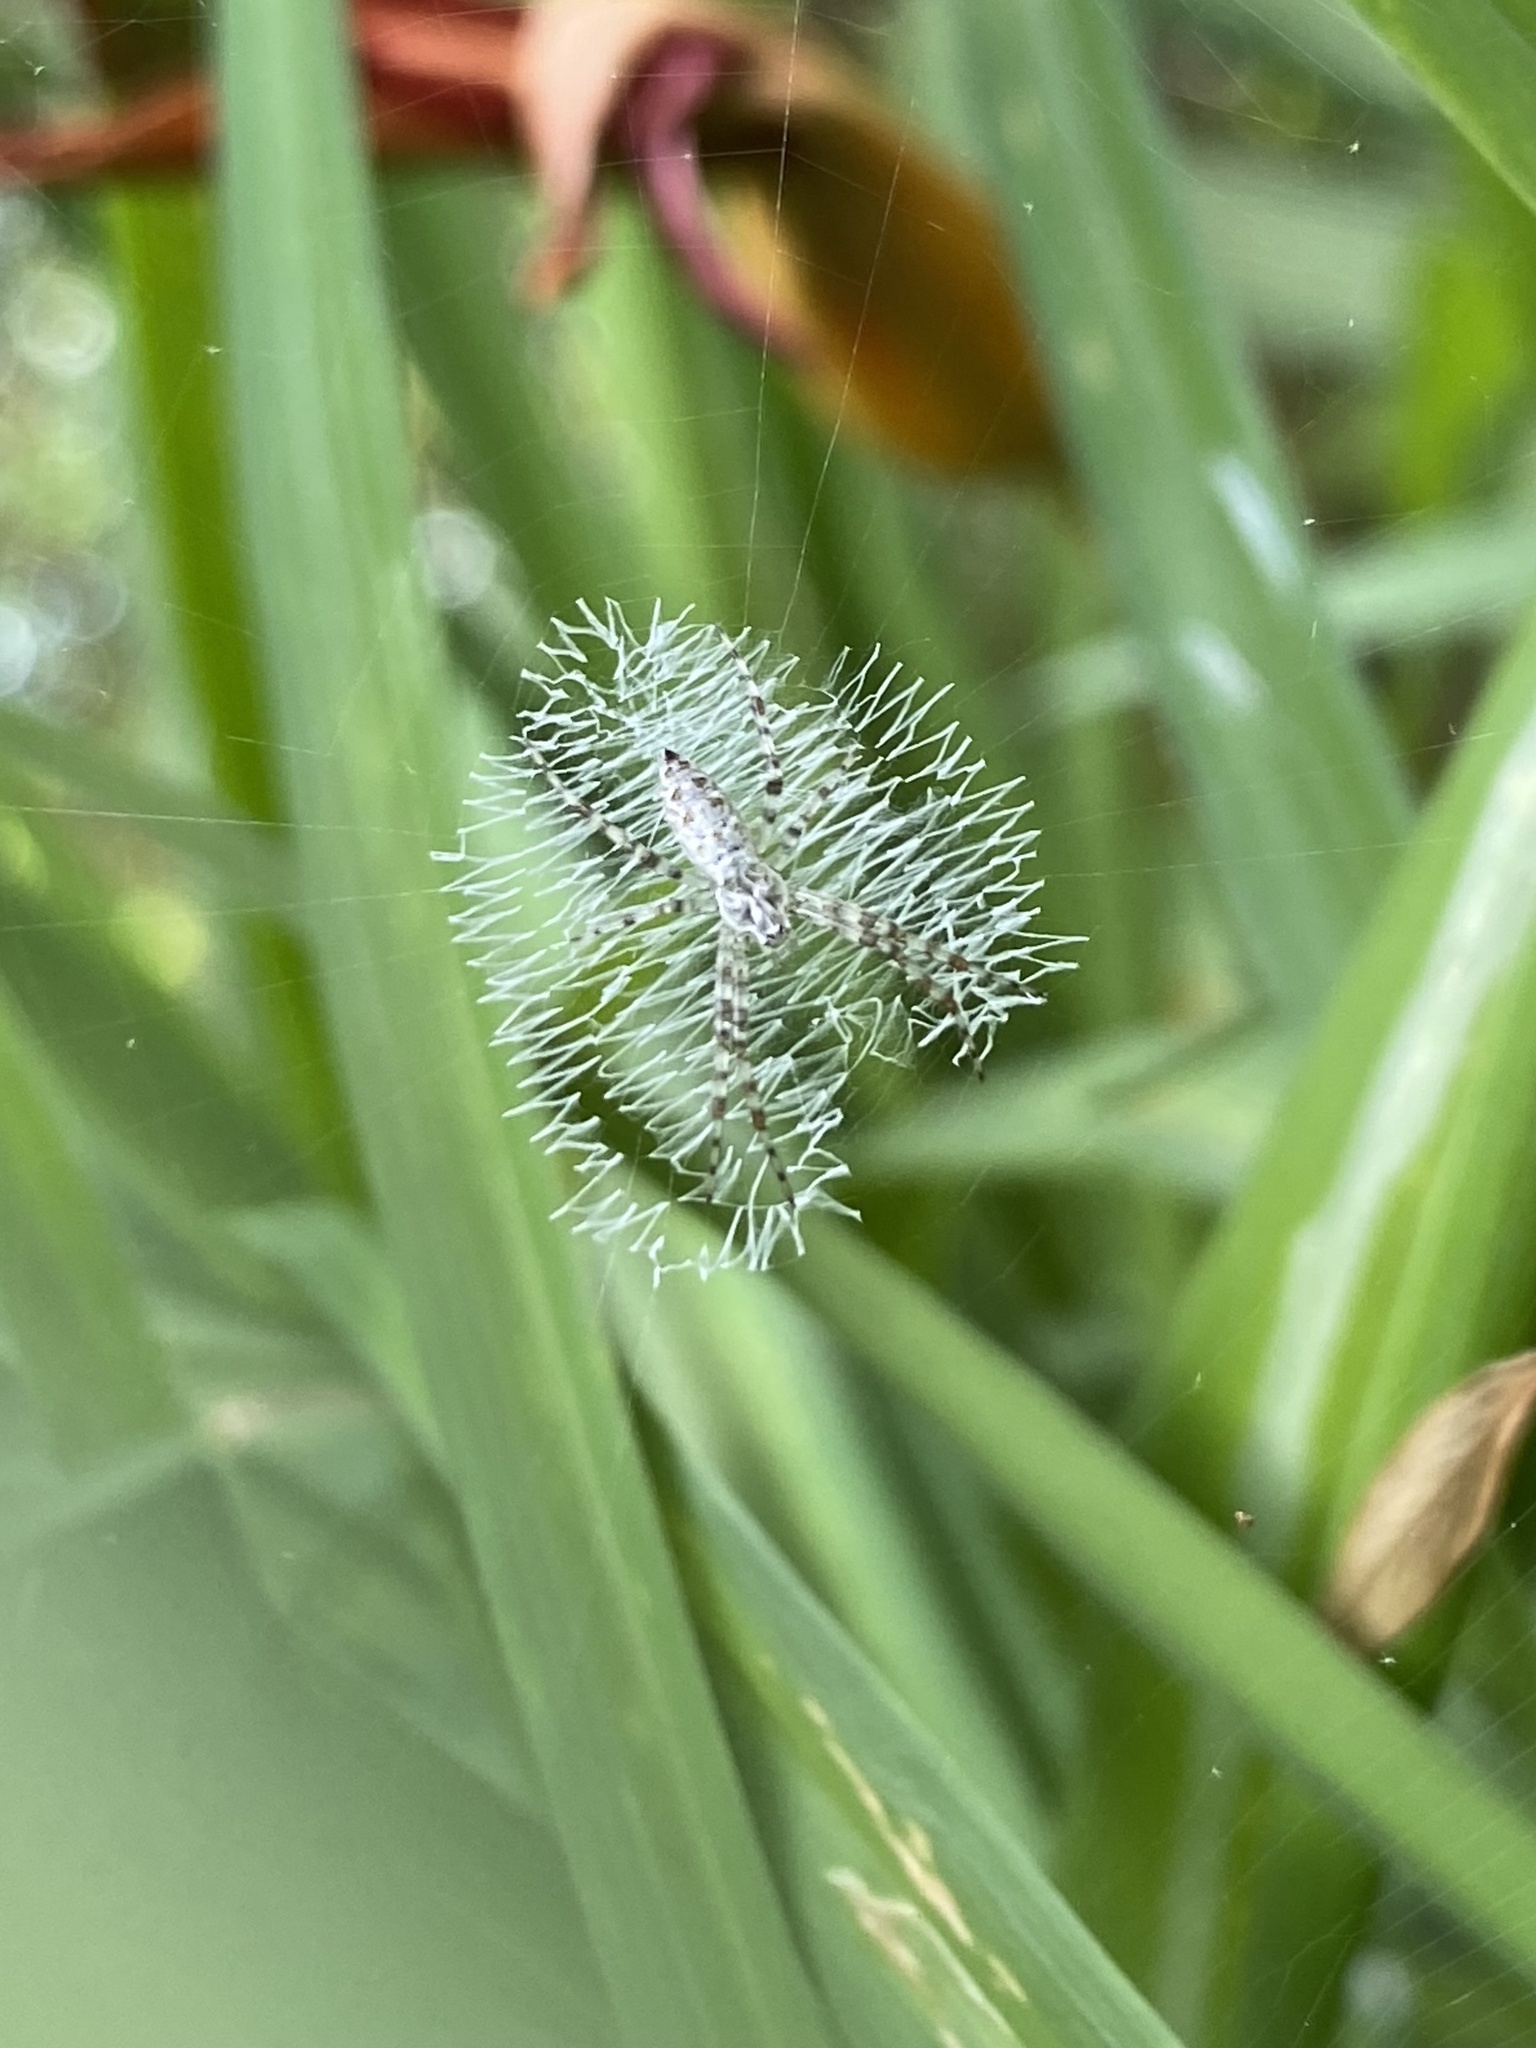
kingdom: Animalia
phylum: Arthropoda
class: Arachnida
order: Araneae
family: Araneidae
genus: Argiope
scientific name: Argiope aurantia
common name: Orb weavers
